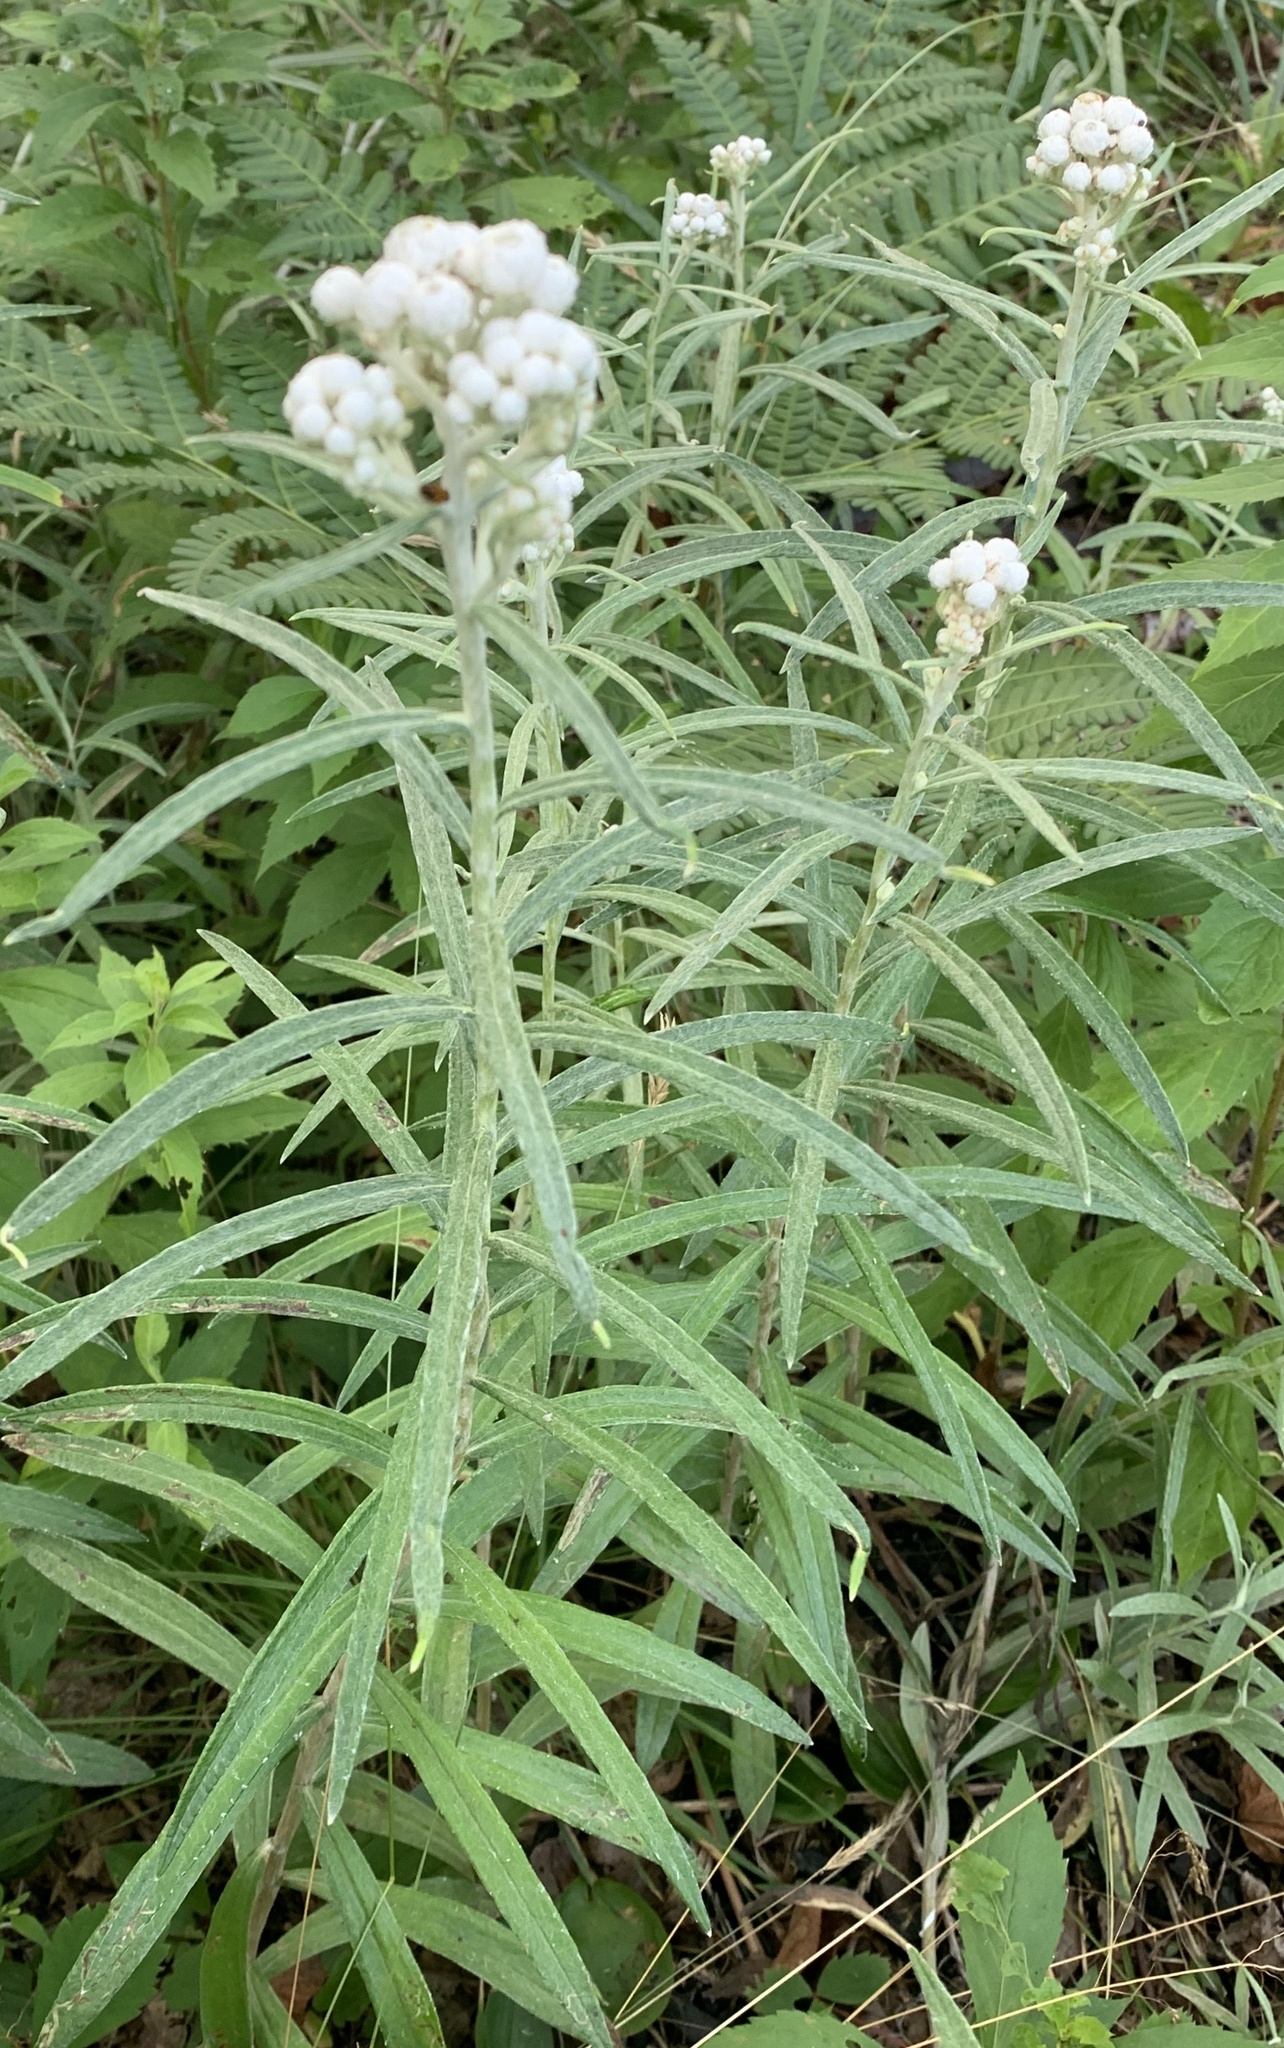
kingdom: Plantae
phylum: Tracheophyta
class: Magnoliopsida
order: Asterales
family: Asteraceae
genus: Anaphalis
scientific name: Anaphalis margaritacea
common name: Pearly everlasting
